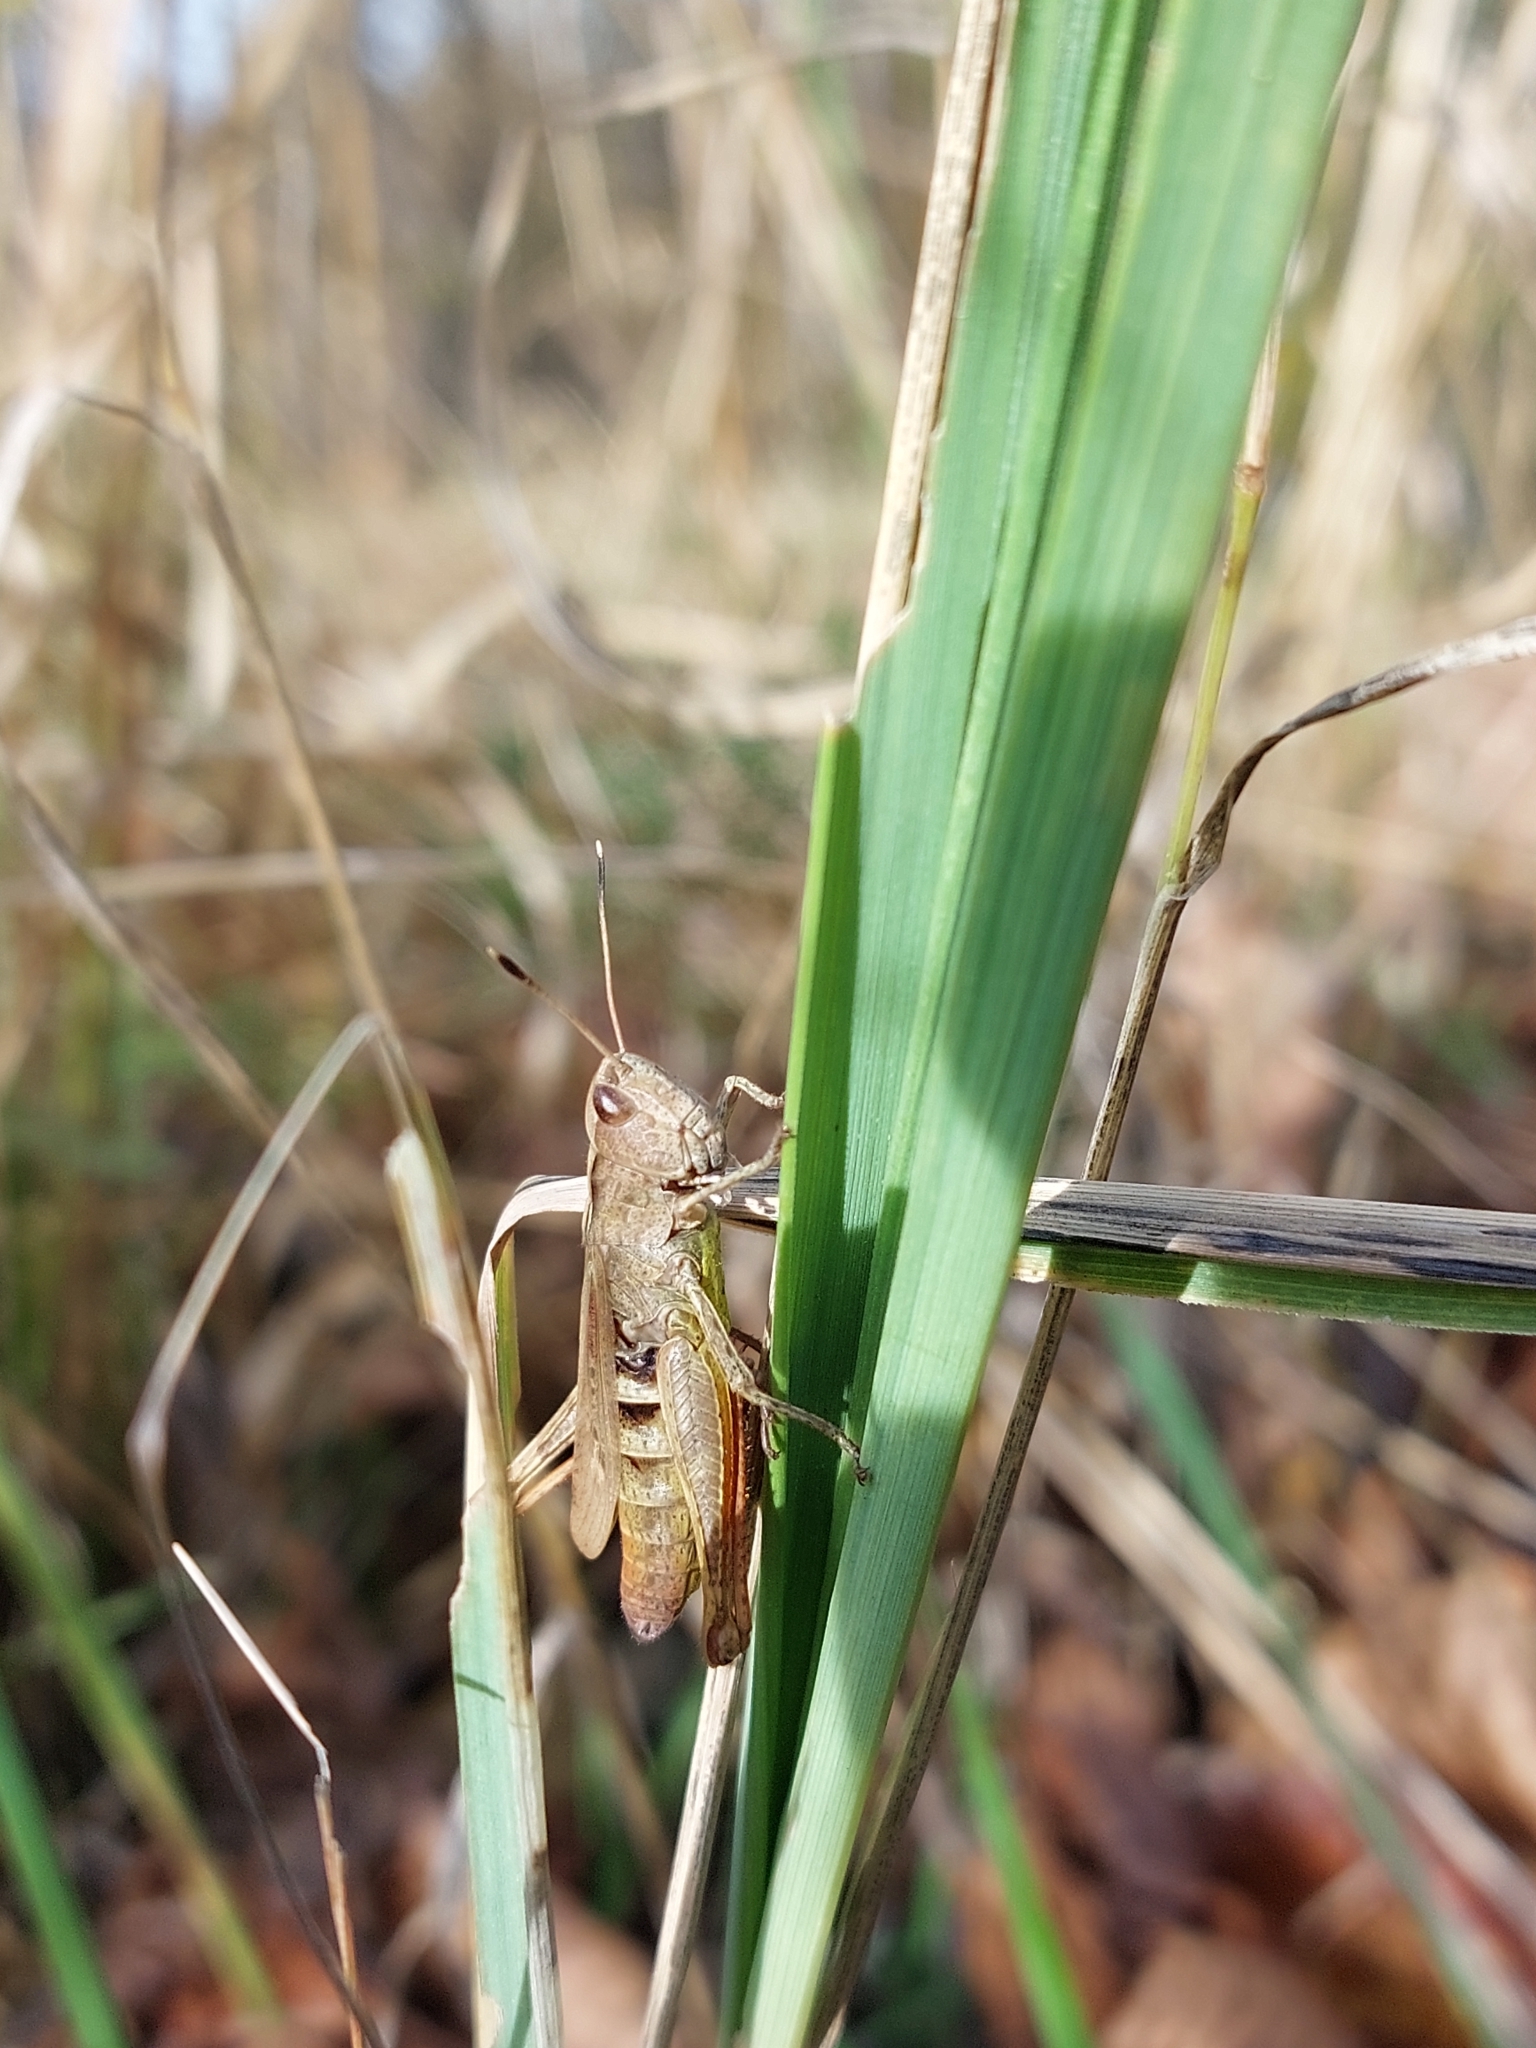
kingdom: Animalia
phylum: Arthropoda
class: Insecta
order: Orthoptera
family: Acrididae
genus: Gomphocerippus
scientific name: Gomphocerippus rufus
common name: Rufous grasshopper
